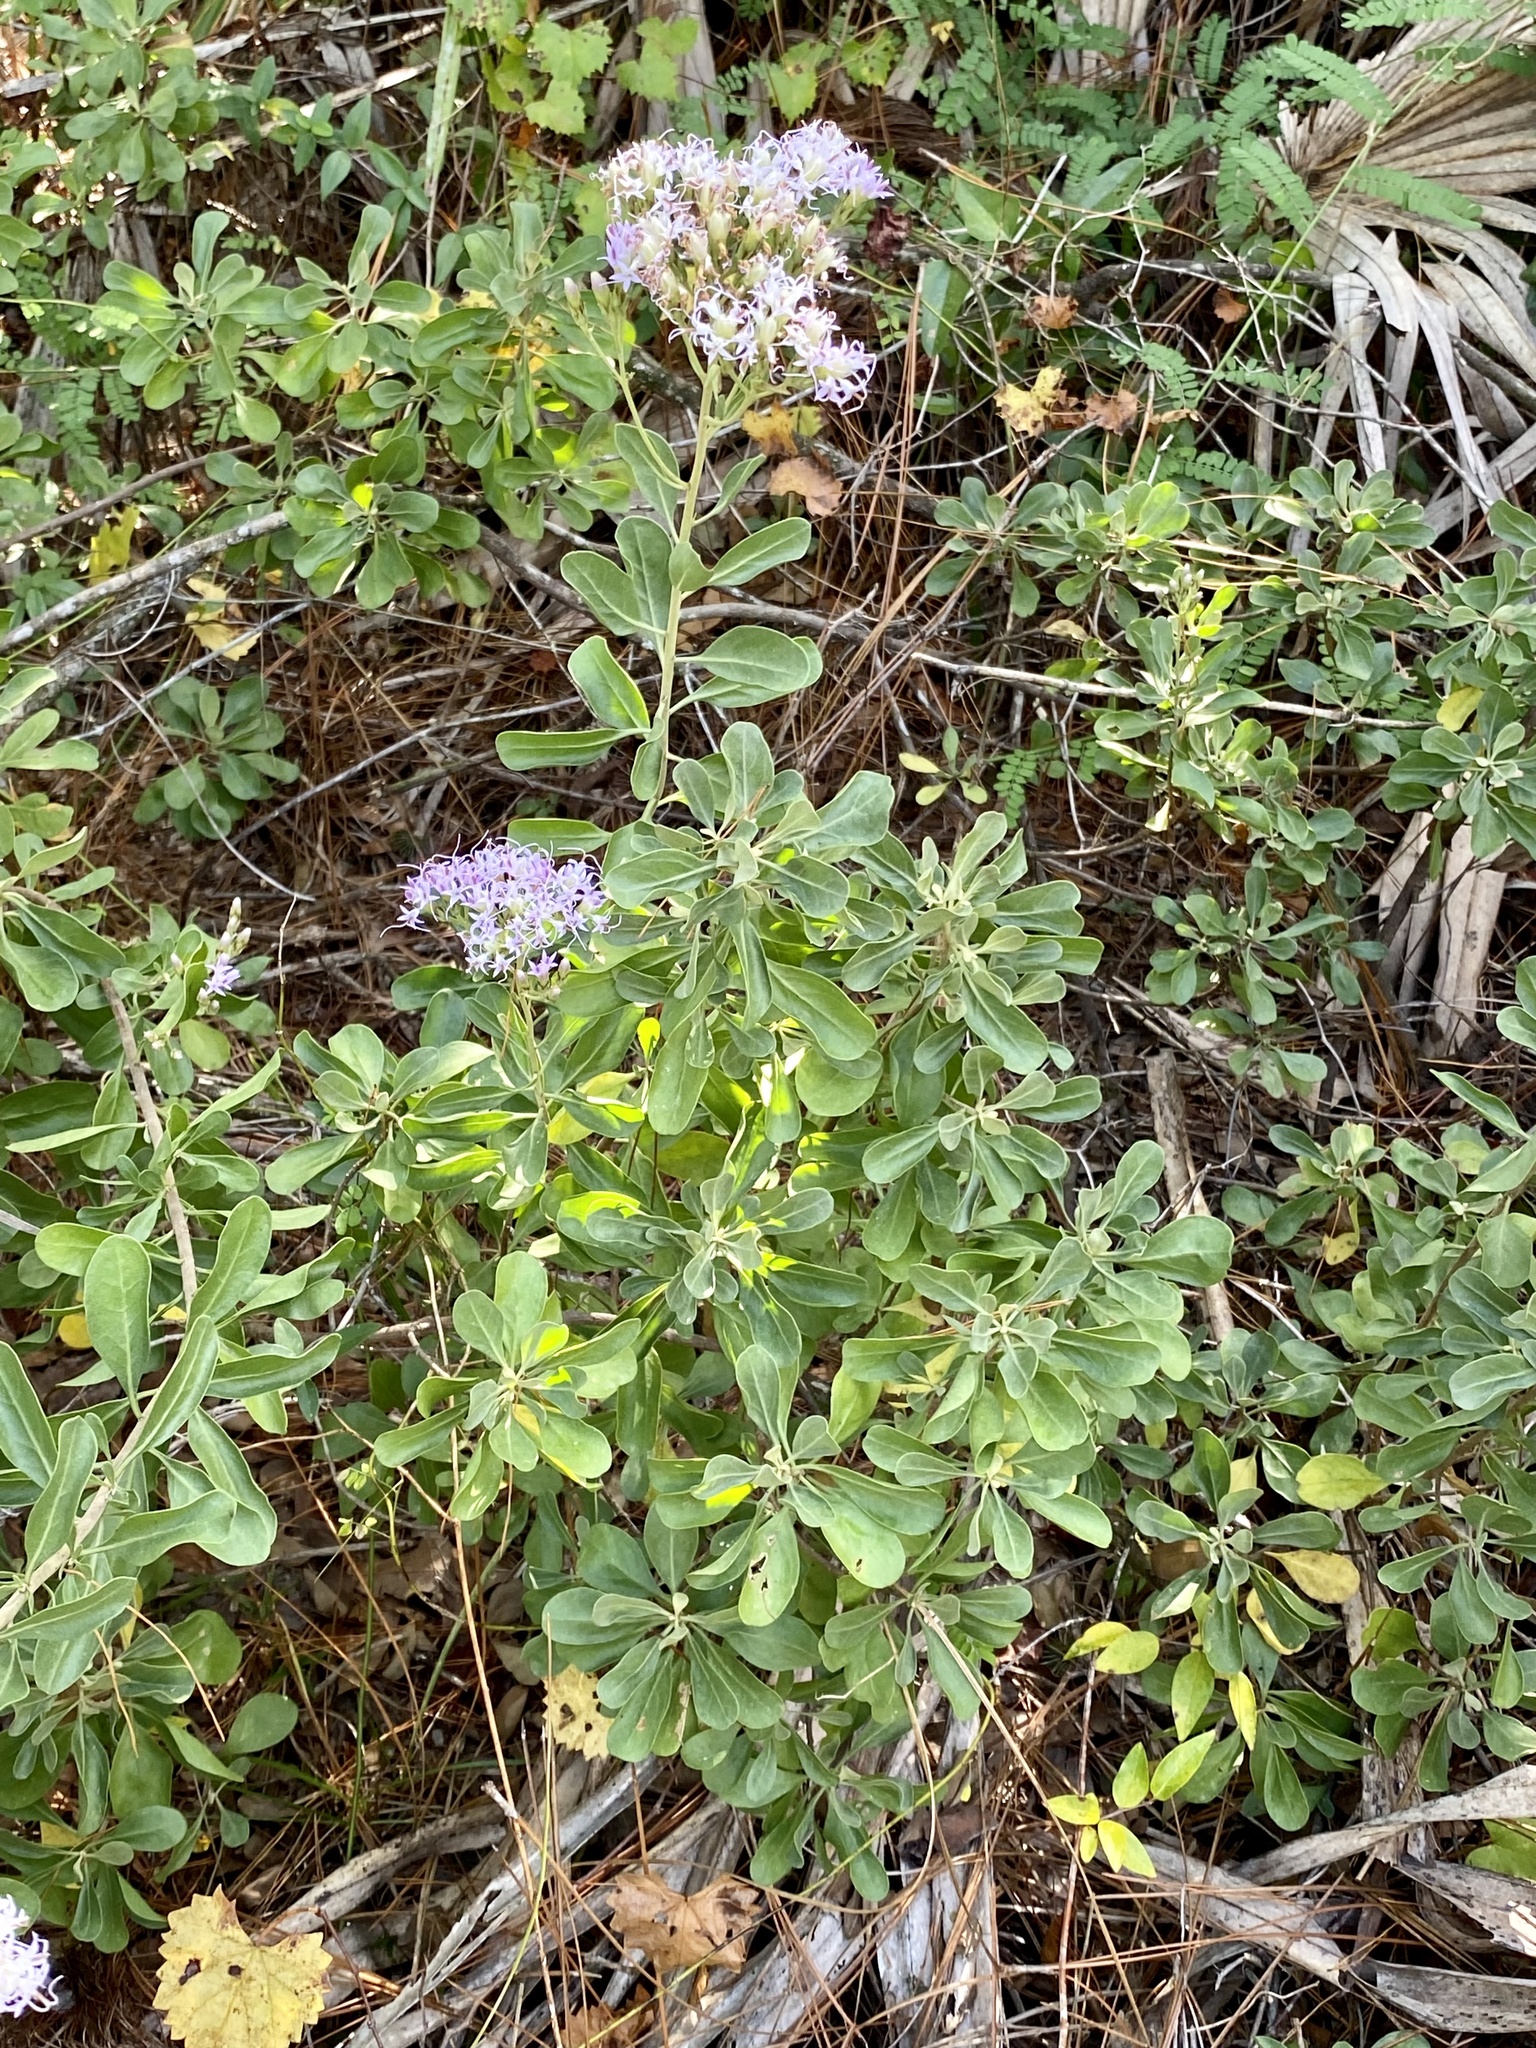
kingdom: Plantae
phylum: Tracheophyta
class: Magnoliopsida
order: Asterales
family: Asteraceae
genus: Garberia
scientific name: Garberia heterophylla
